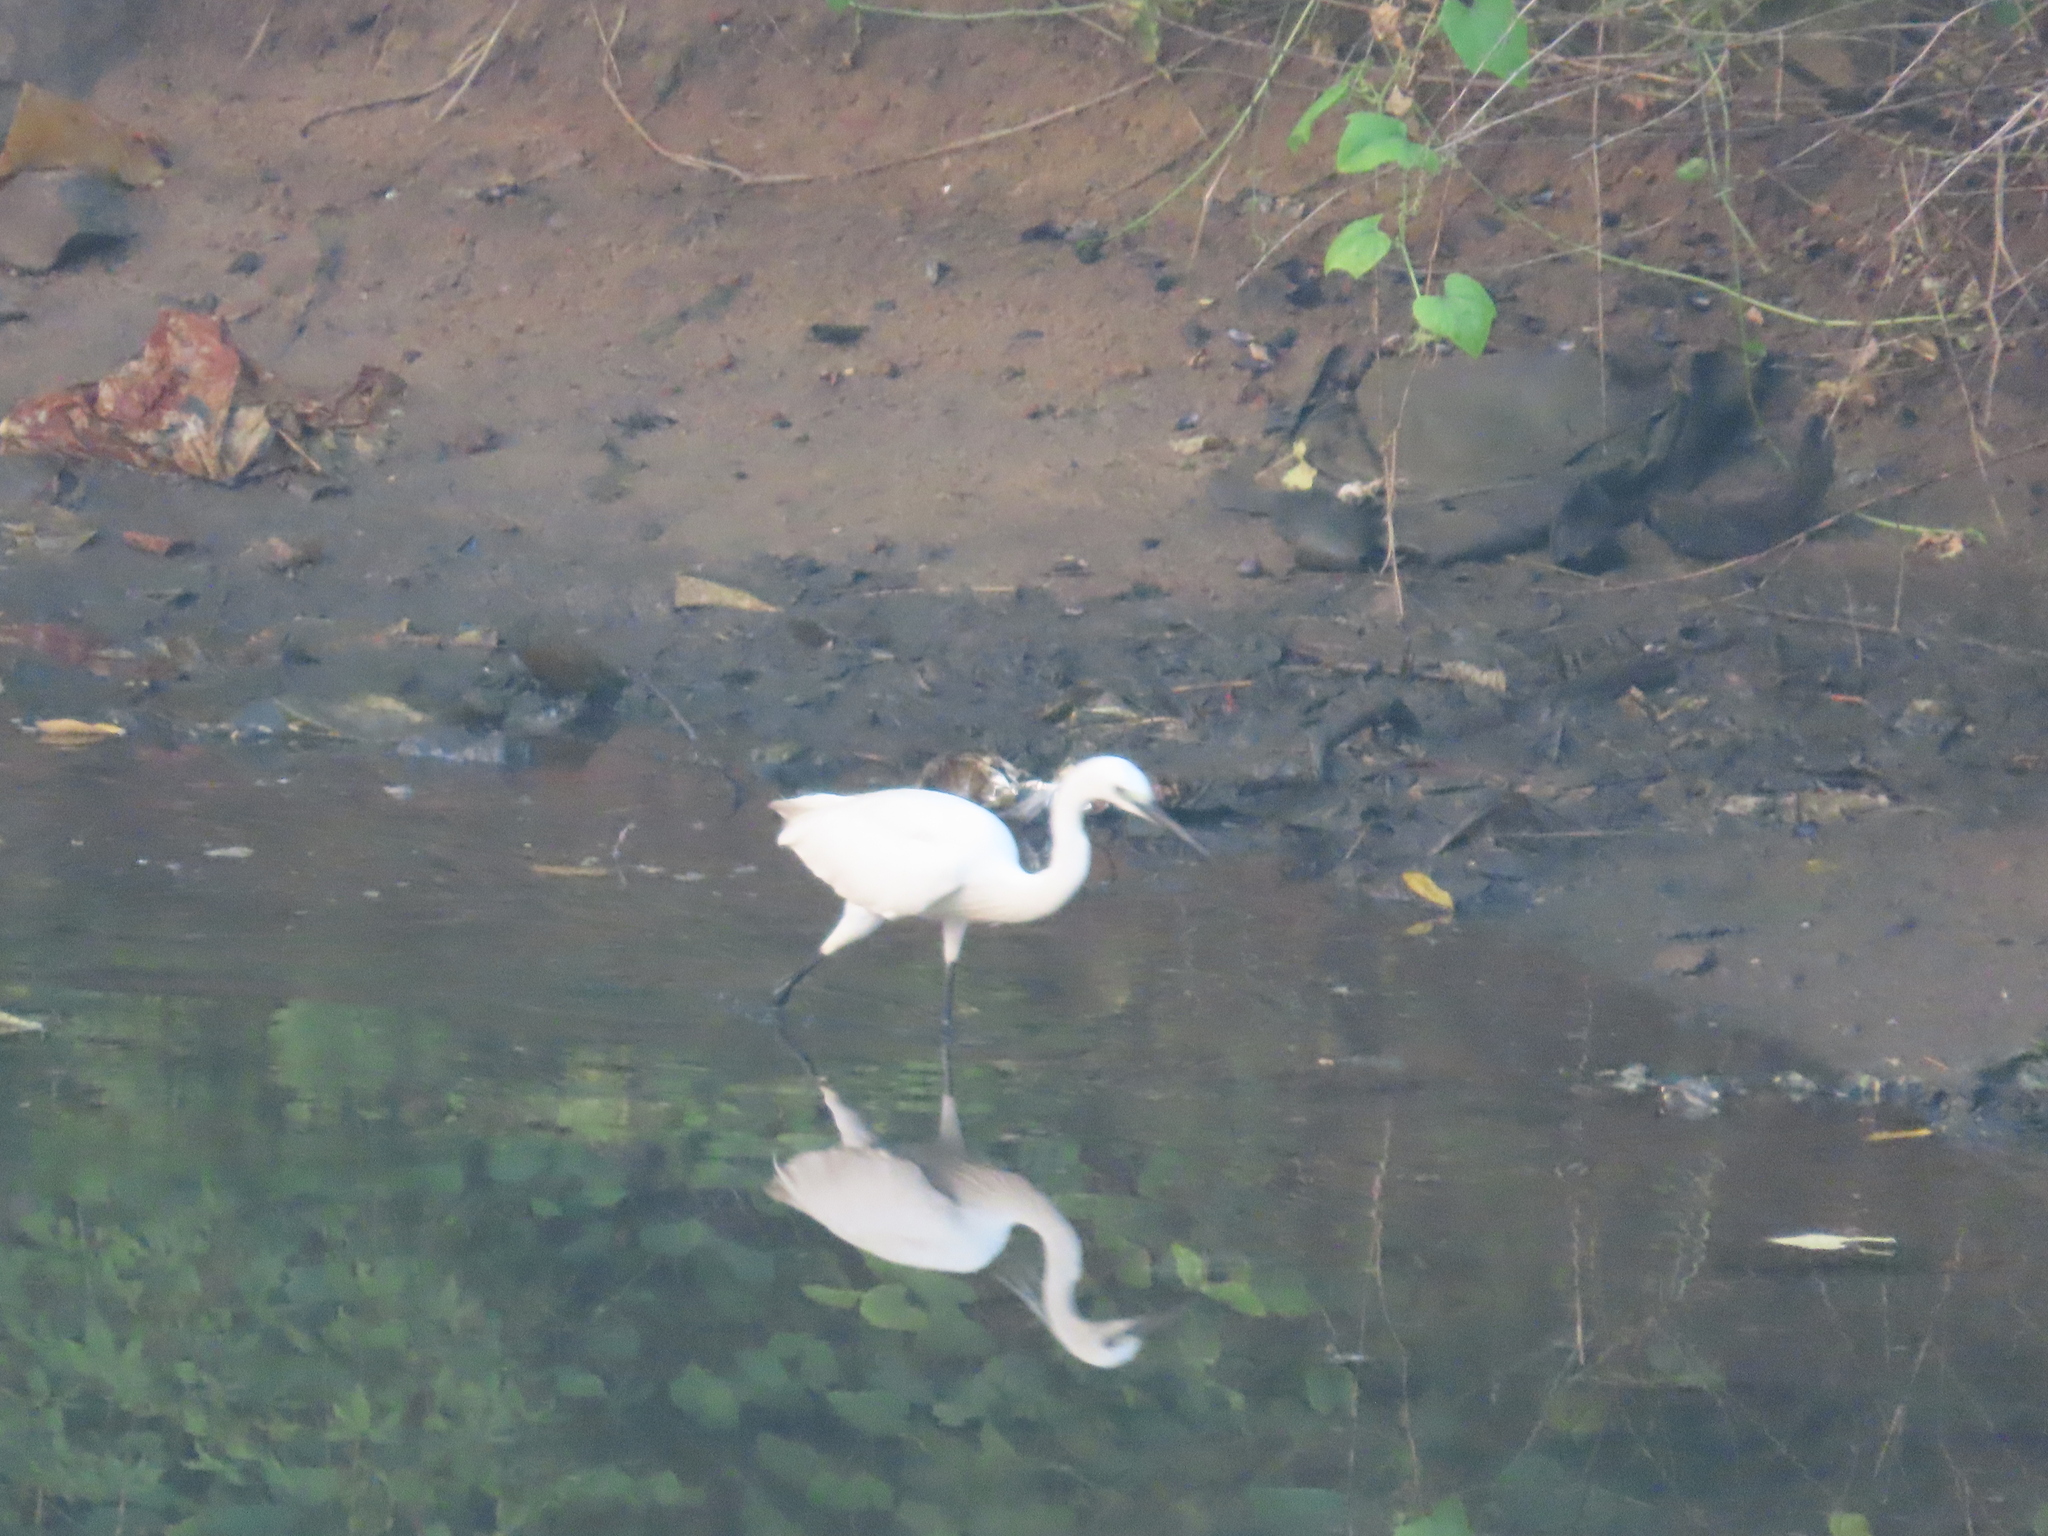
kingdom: Animalia
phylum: Chordata
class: Aves
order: Pelecaniformes
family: Ardeidae
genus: Egretta
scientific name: Egretta garzetta
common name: Little egret
